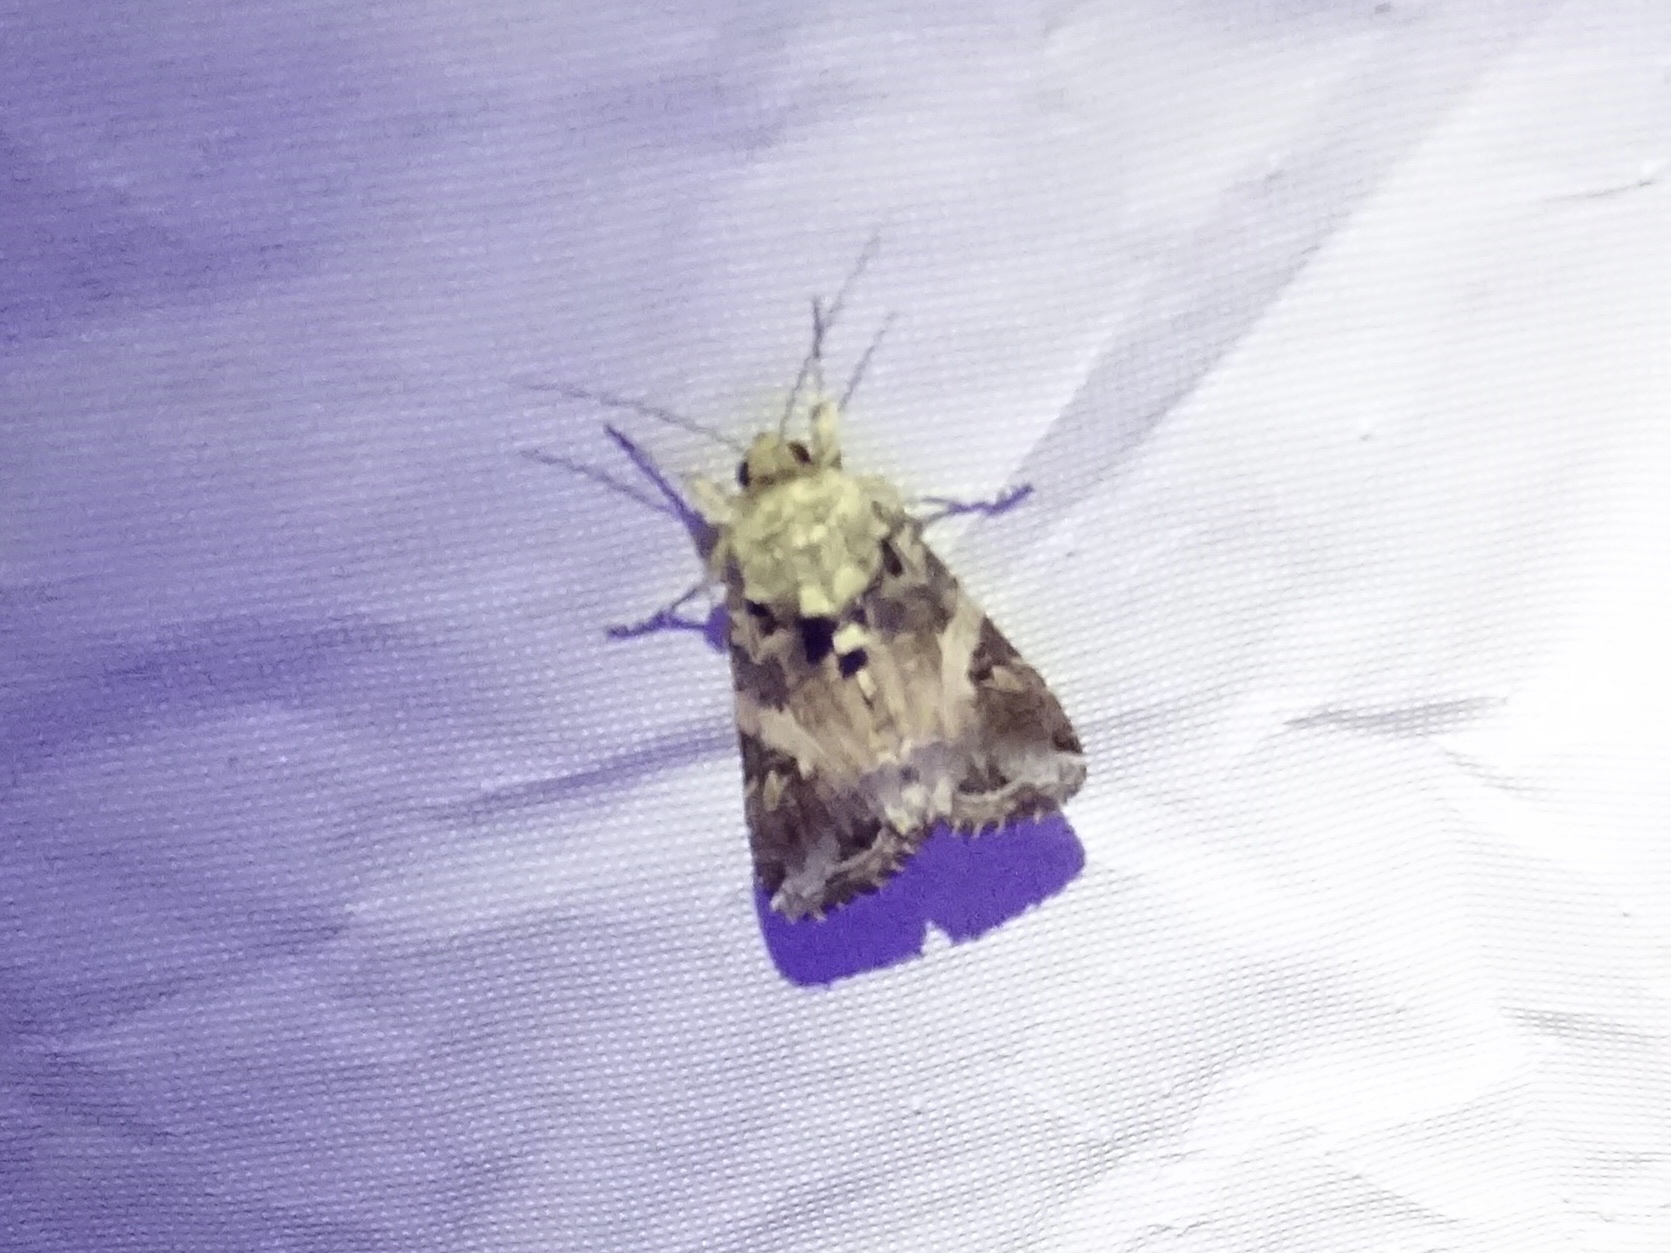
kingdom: Animalia
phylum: Arthropoda
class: Insecta
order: Lepidoptera
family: Noctuidae
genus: Spodoptera
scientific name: Spodoptera ornithogalli
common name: Yellow-striped armyworm
